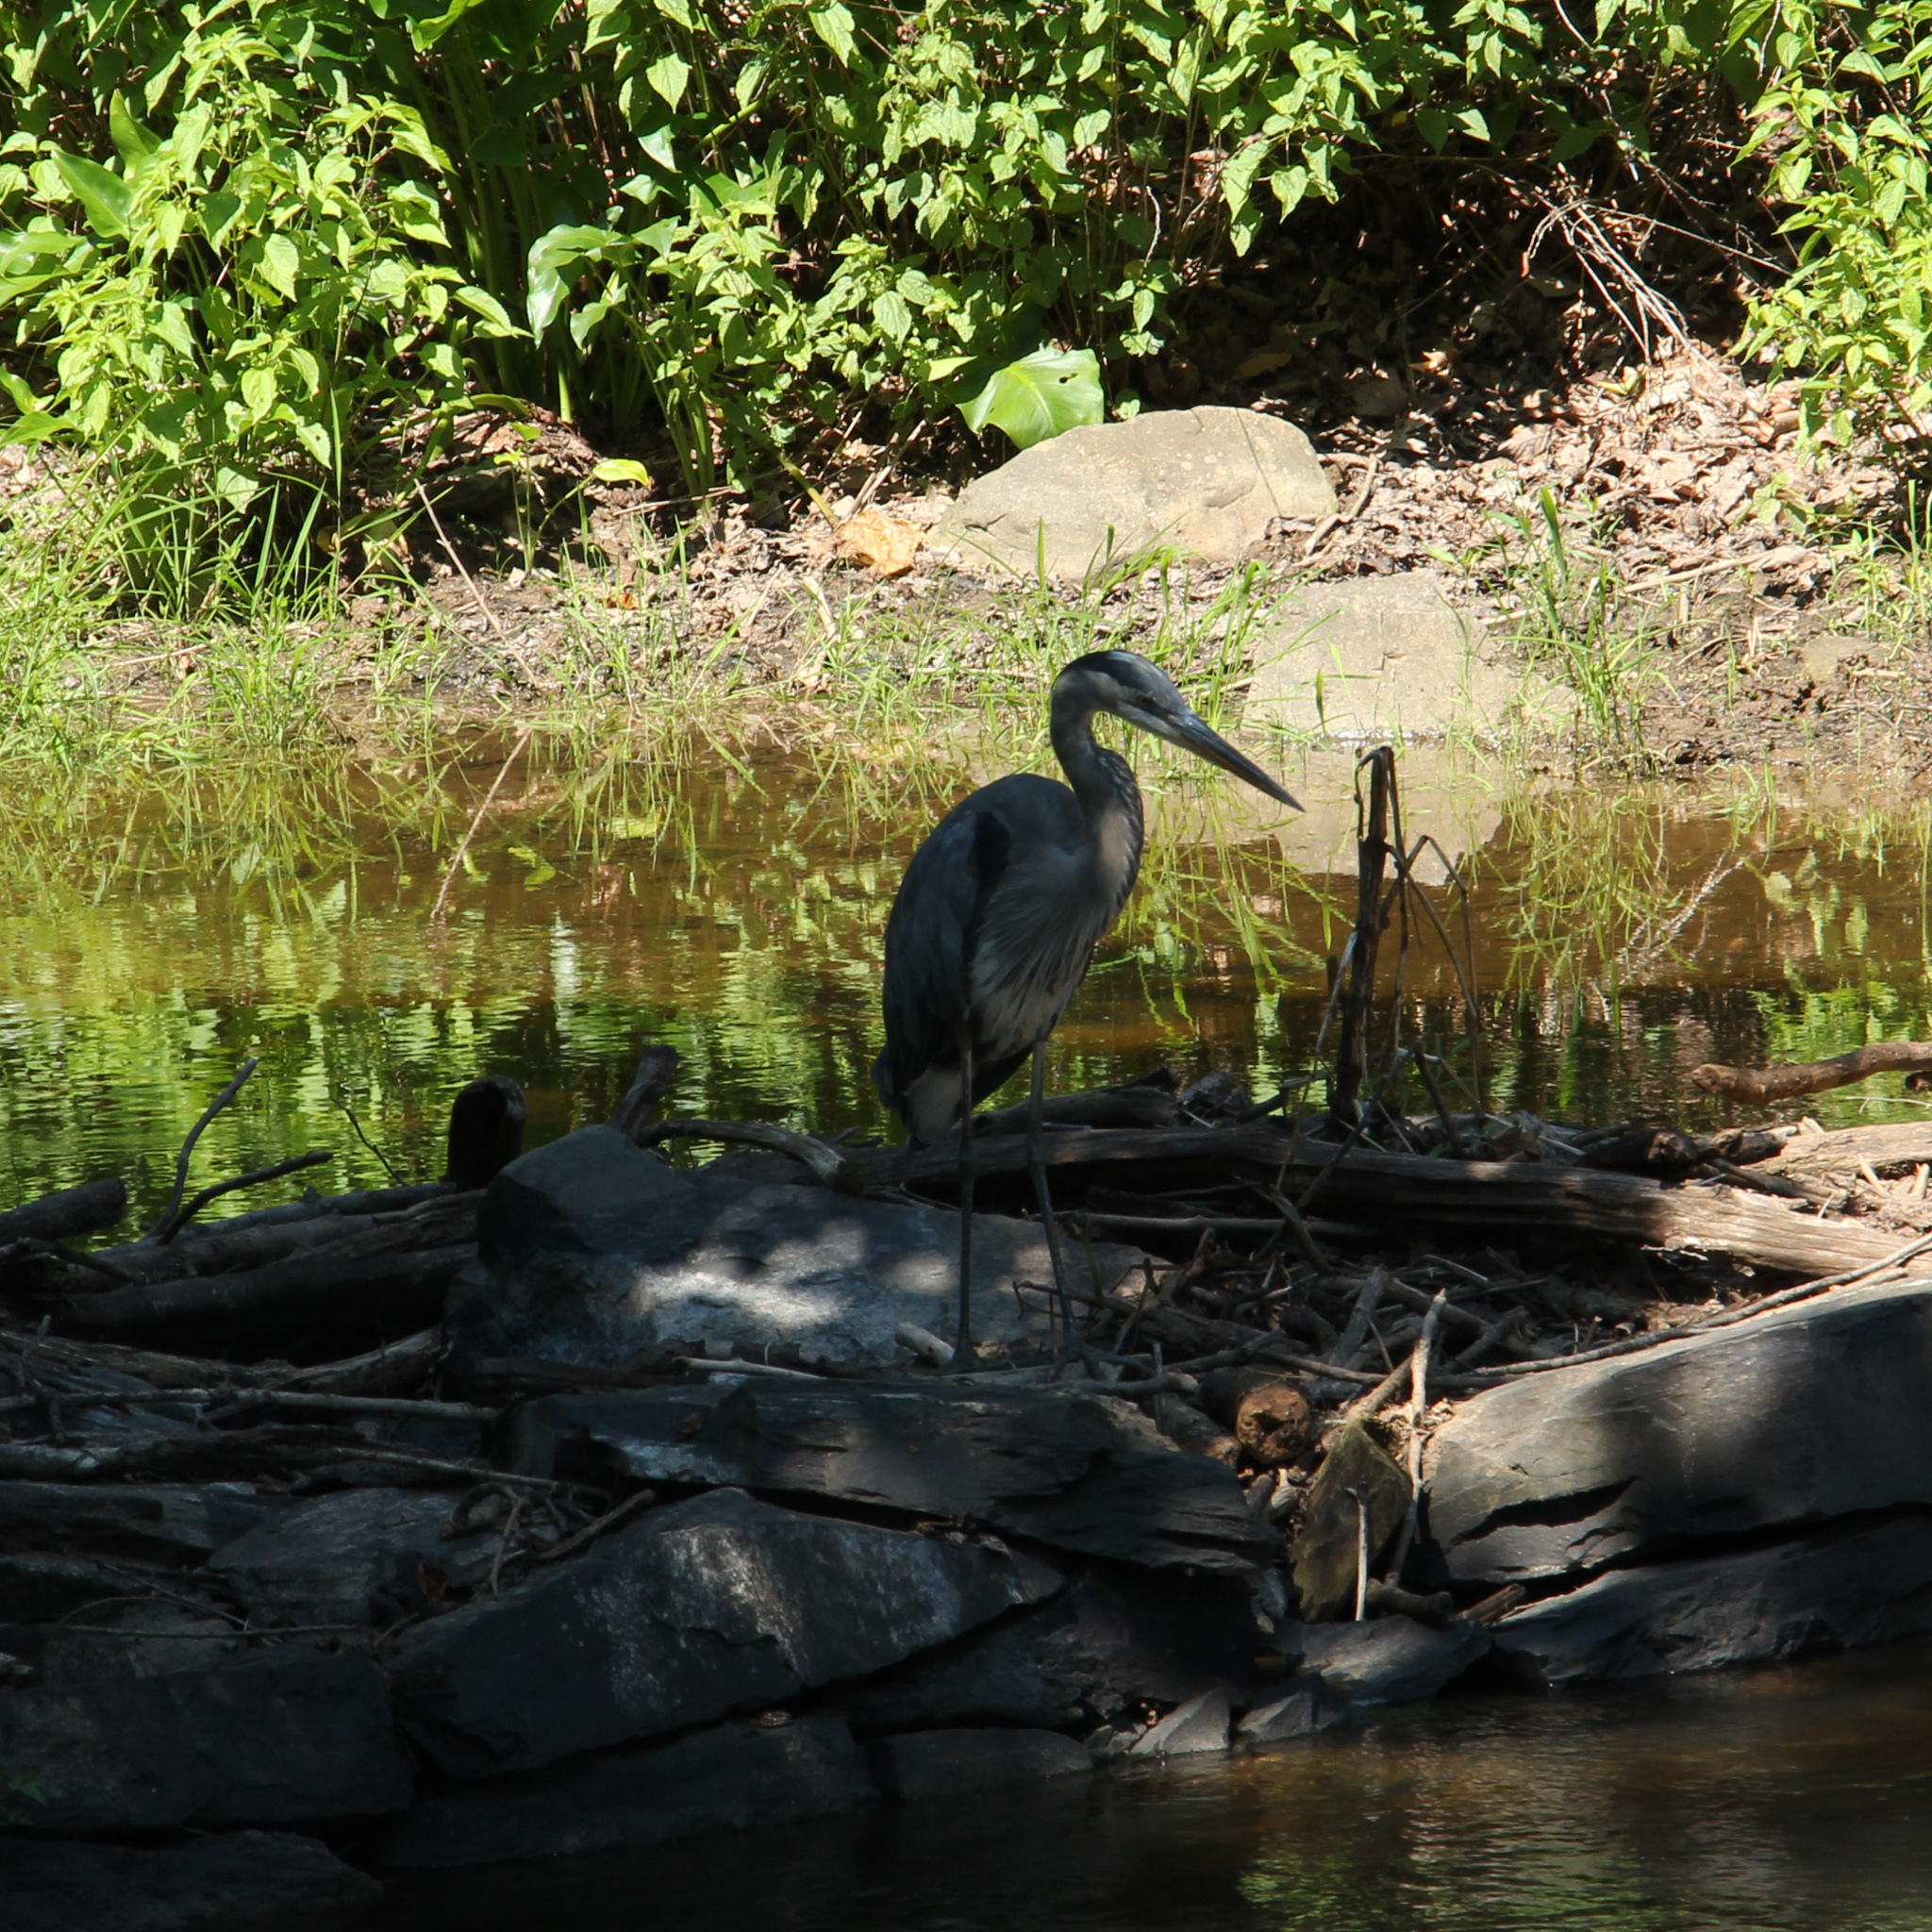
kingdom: Animalia
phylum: Chordata
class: Aves
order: Pelecaniformes
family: Ardeidae
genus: Ardea
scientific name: Ardea herodias
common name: Great blue heron
